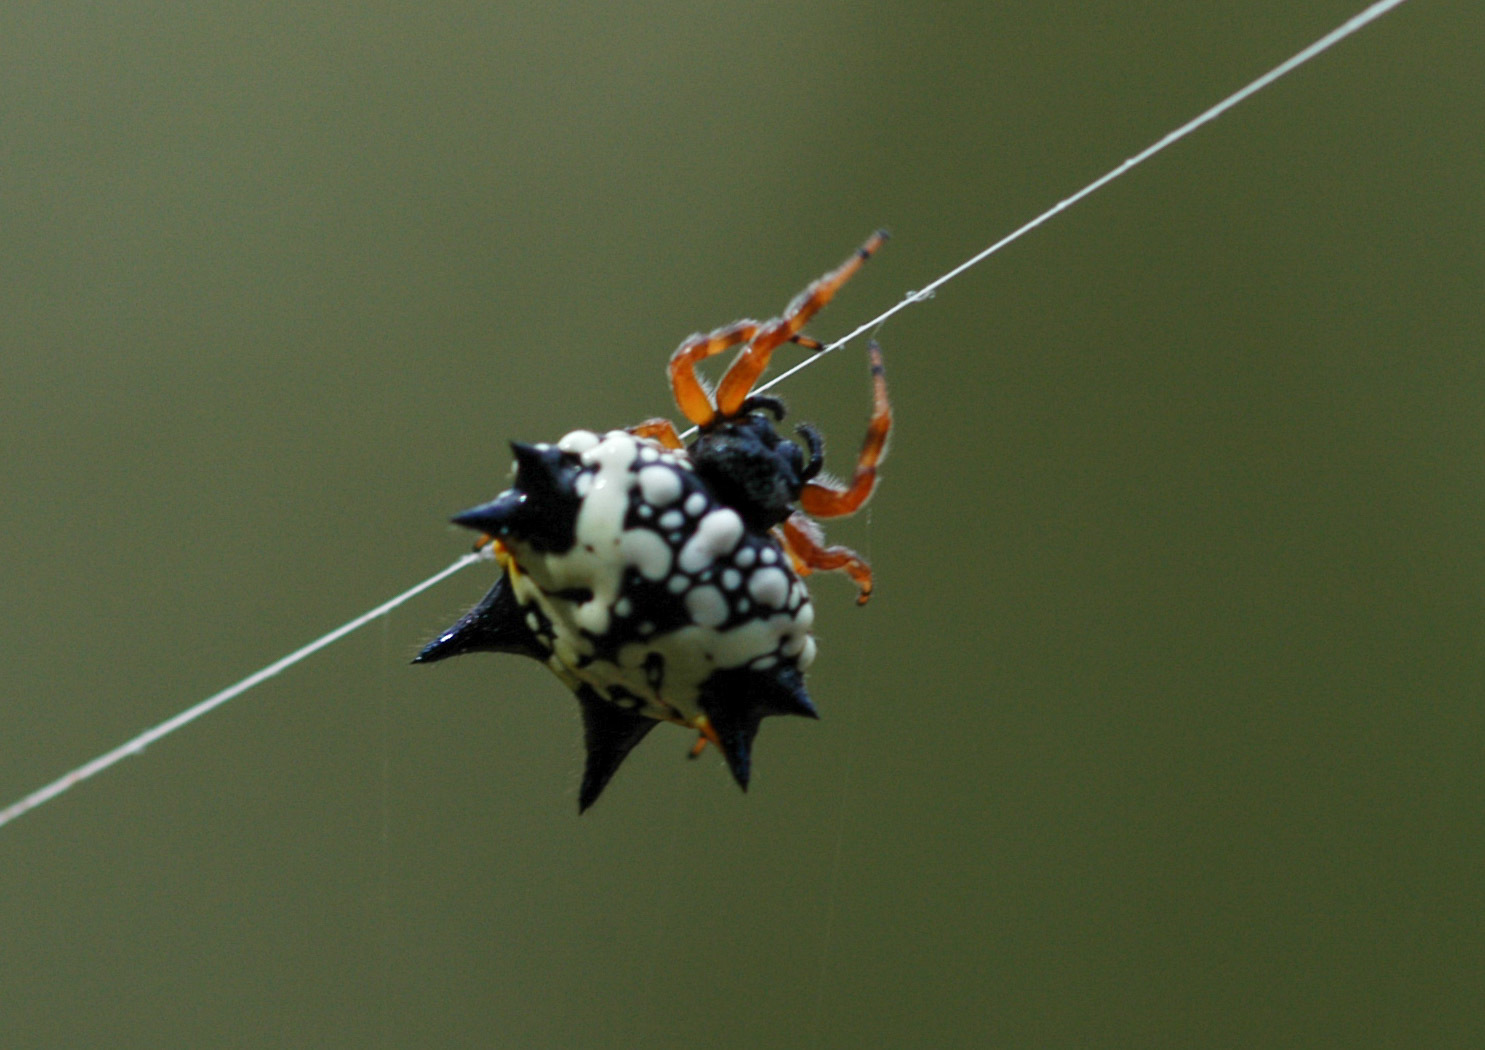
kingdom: Animalia
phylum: Arthropoda
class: Arachnida
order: Araneae
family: Araneidae
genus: Austracantha
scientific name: Austracantha minax
